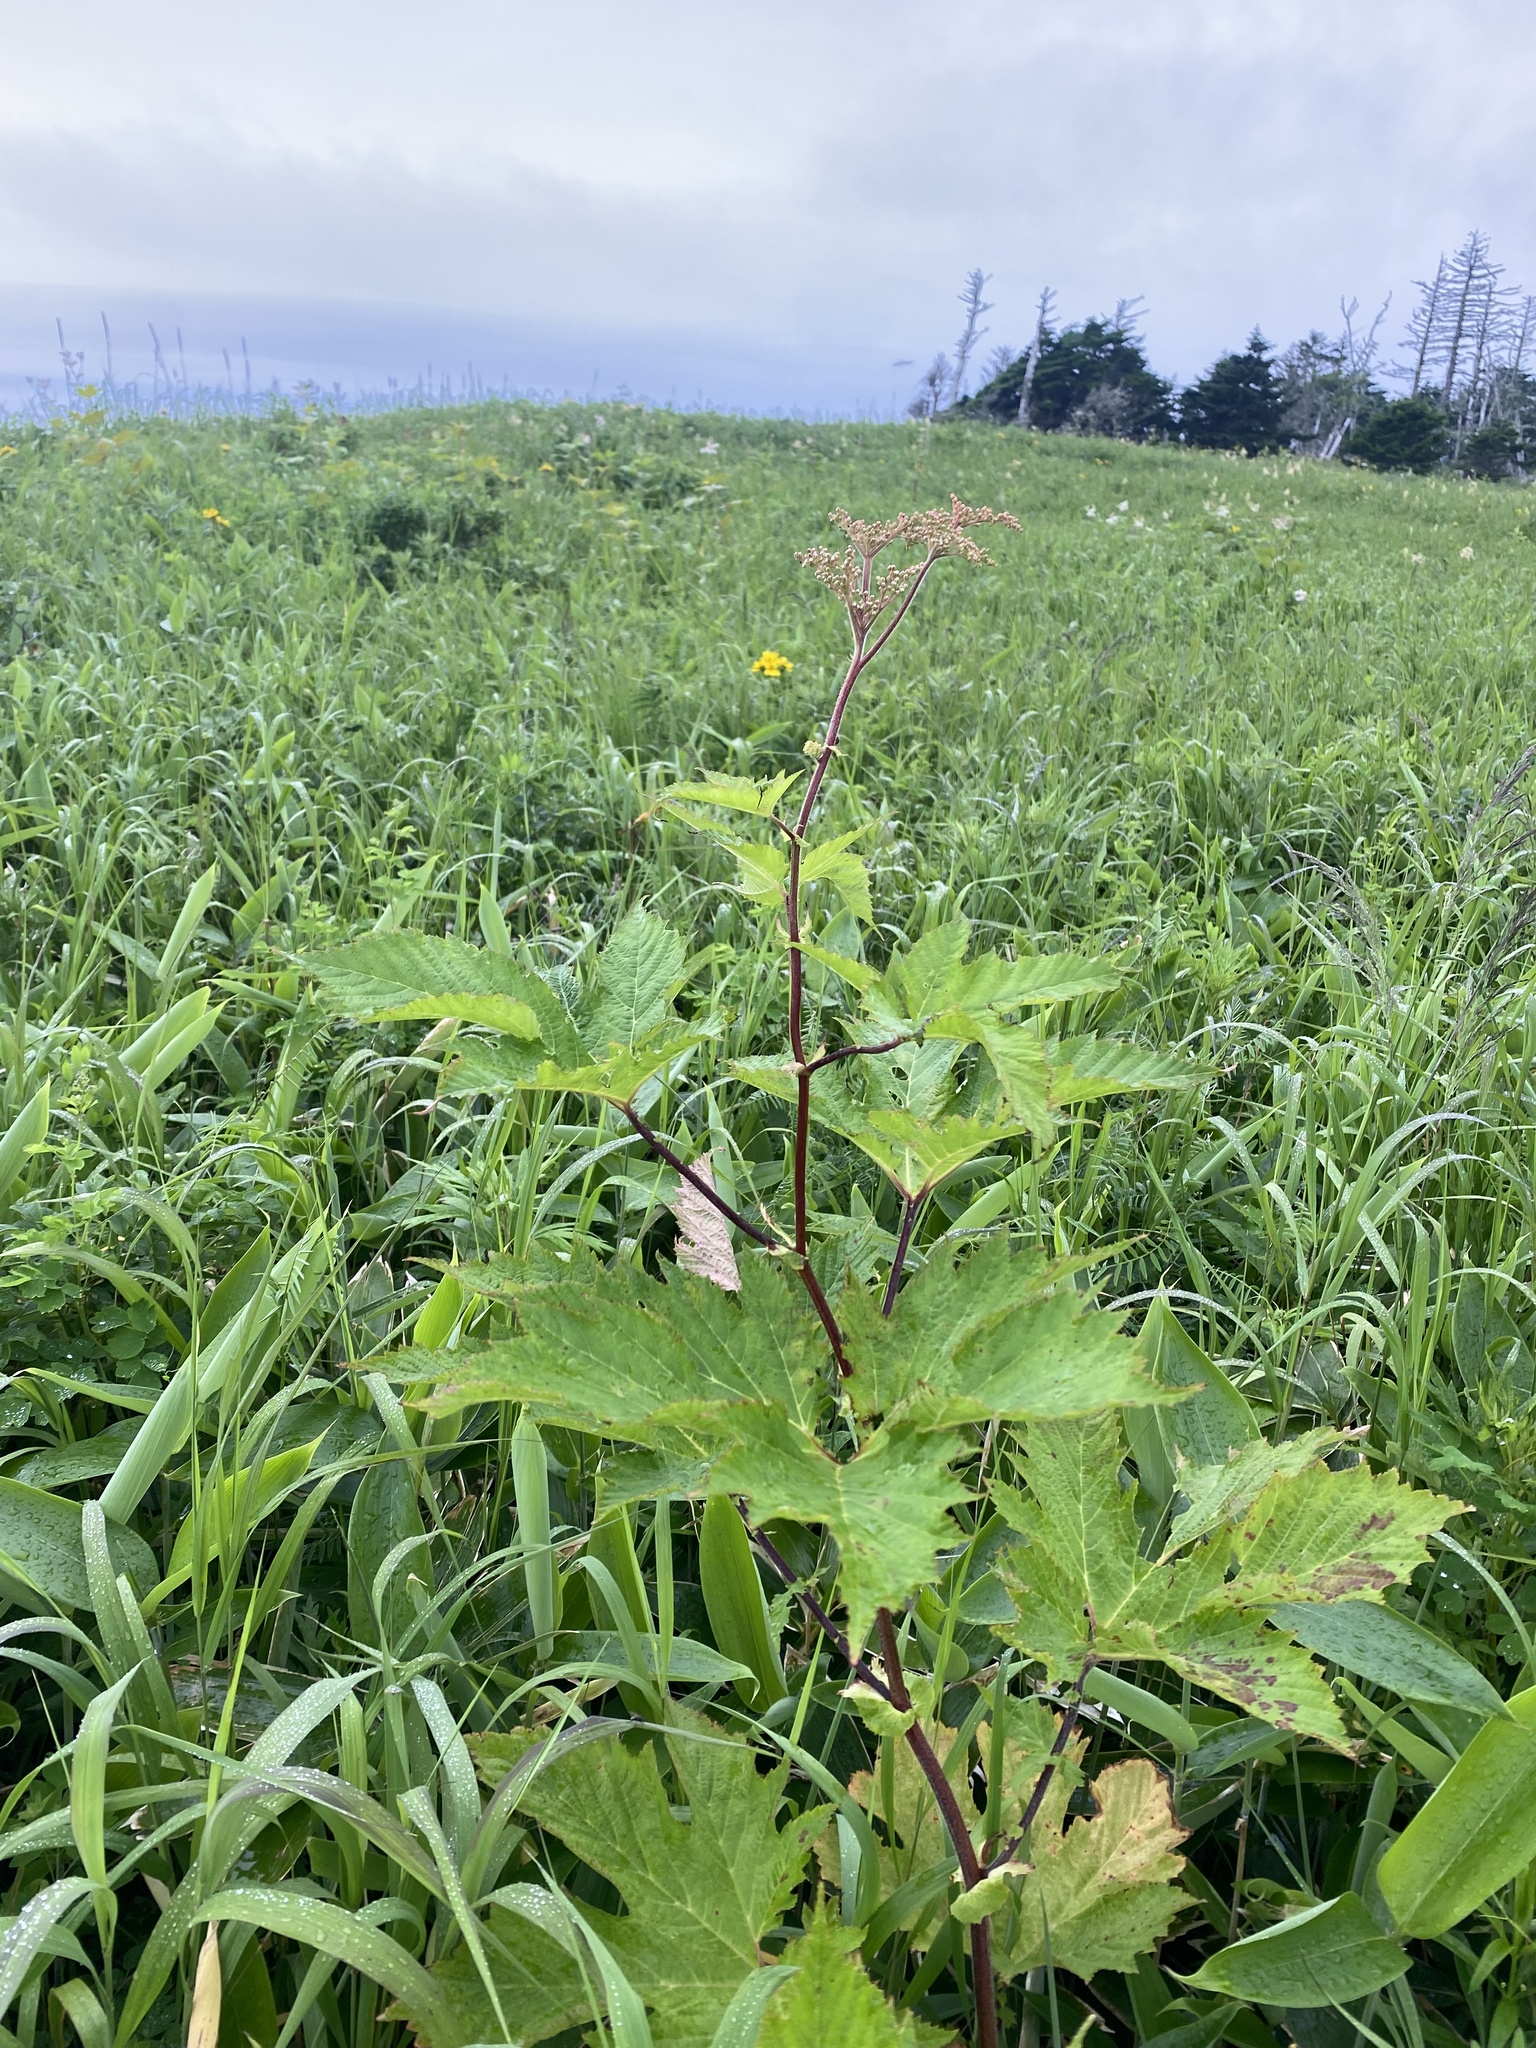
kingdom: Plantae
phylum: Tracheophyta
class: Magnoliopsida
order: Rosales
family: Rosaceae
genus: Filipendula
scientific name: Filipendula camtschatica
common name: Giant meadowsweet
